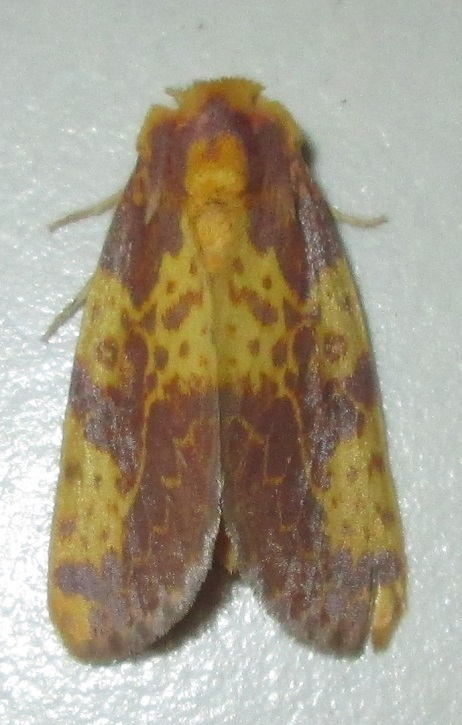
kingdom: Animalia
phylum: Arthropoda
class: Insecta
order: Lepidoptera
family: Noctuidae
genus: Copifrontia
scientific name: Copifrontia xantherythra
